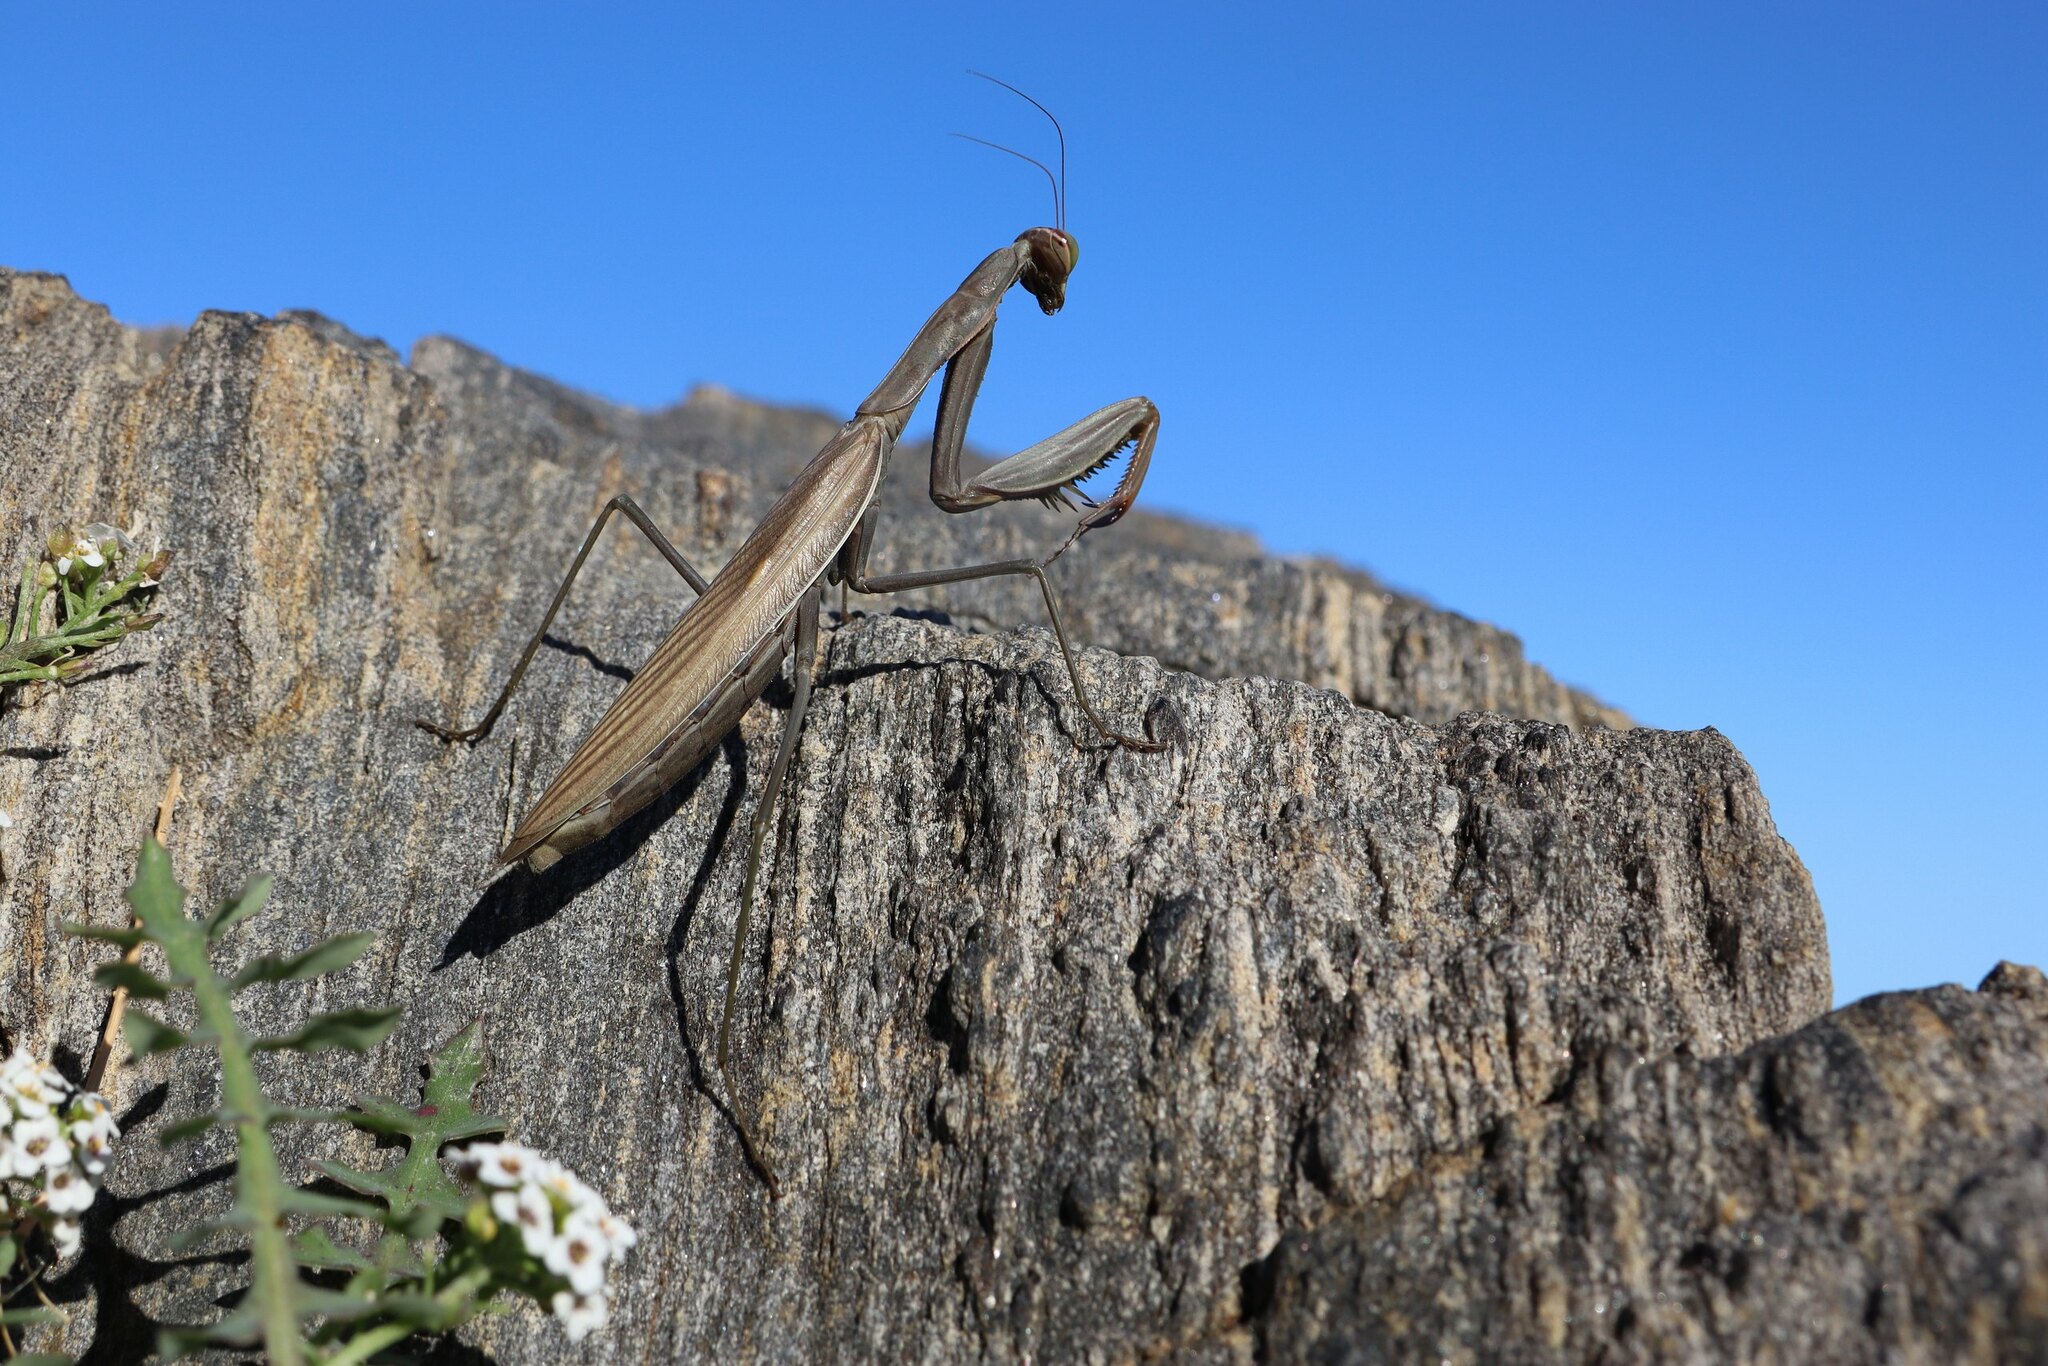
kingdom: Animalia
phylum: Arthropoda
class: Insecta
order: Mantodea
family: Mantidae
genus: Mantis
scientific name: Mantis religiosa
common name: Praying mantis
